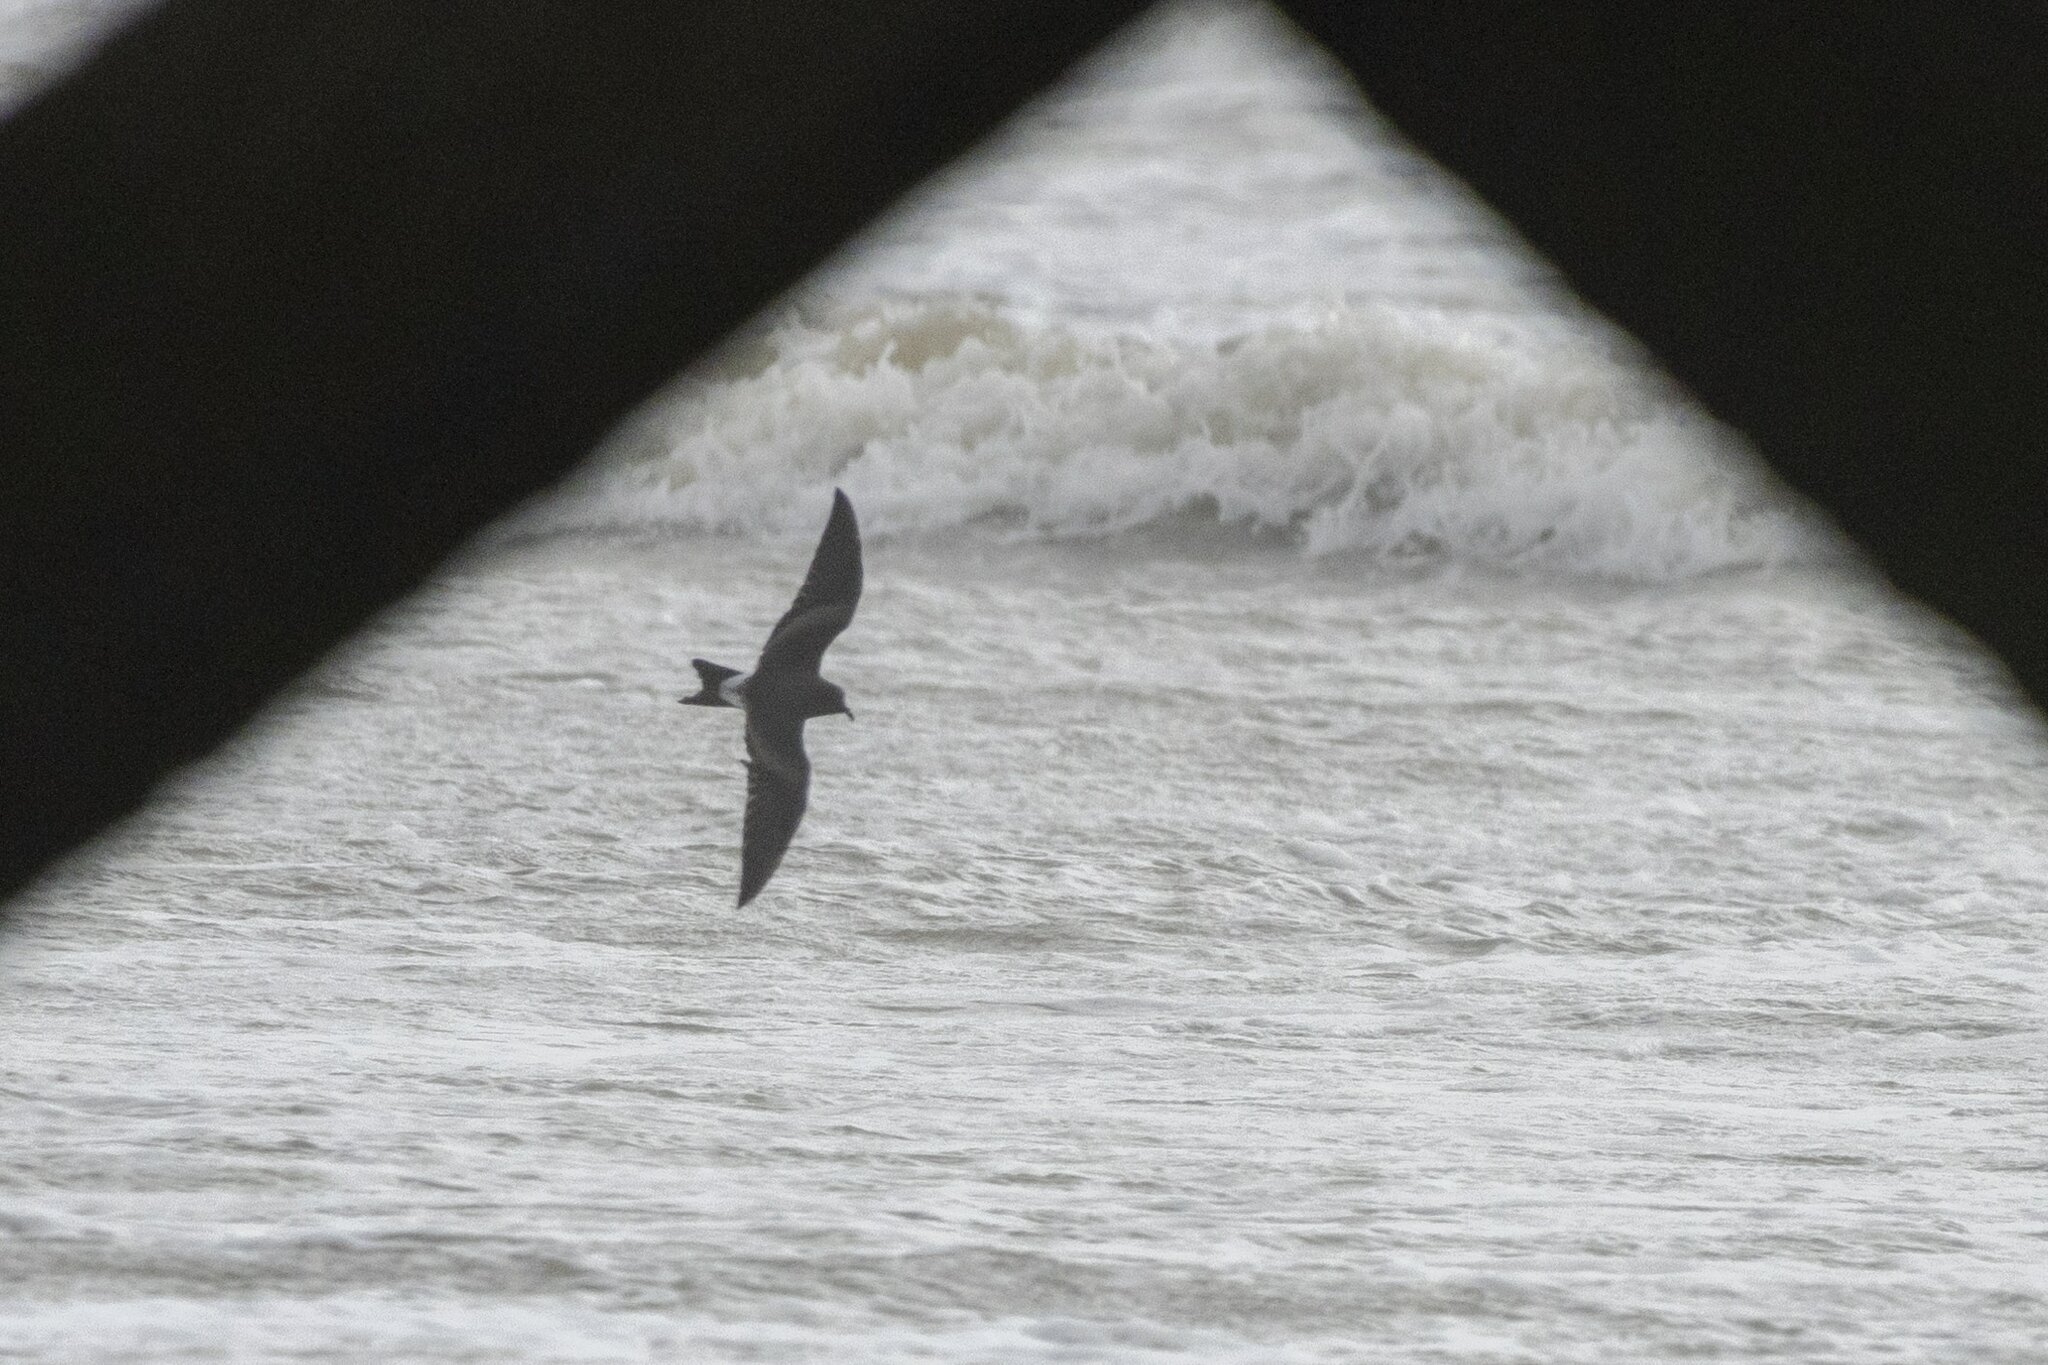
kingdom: Animalia
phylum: Chordata
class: Aves
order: Procellariiformes
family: Hydrobatidae
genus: Oceanodroma
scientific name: Oceanodroma leucorhoa
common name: Leach's storm-petrel
